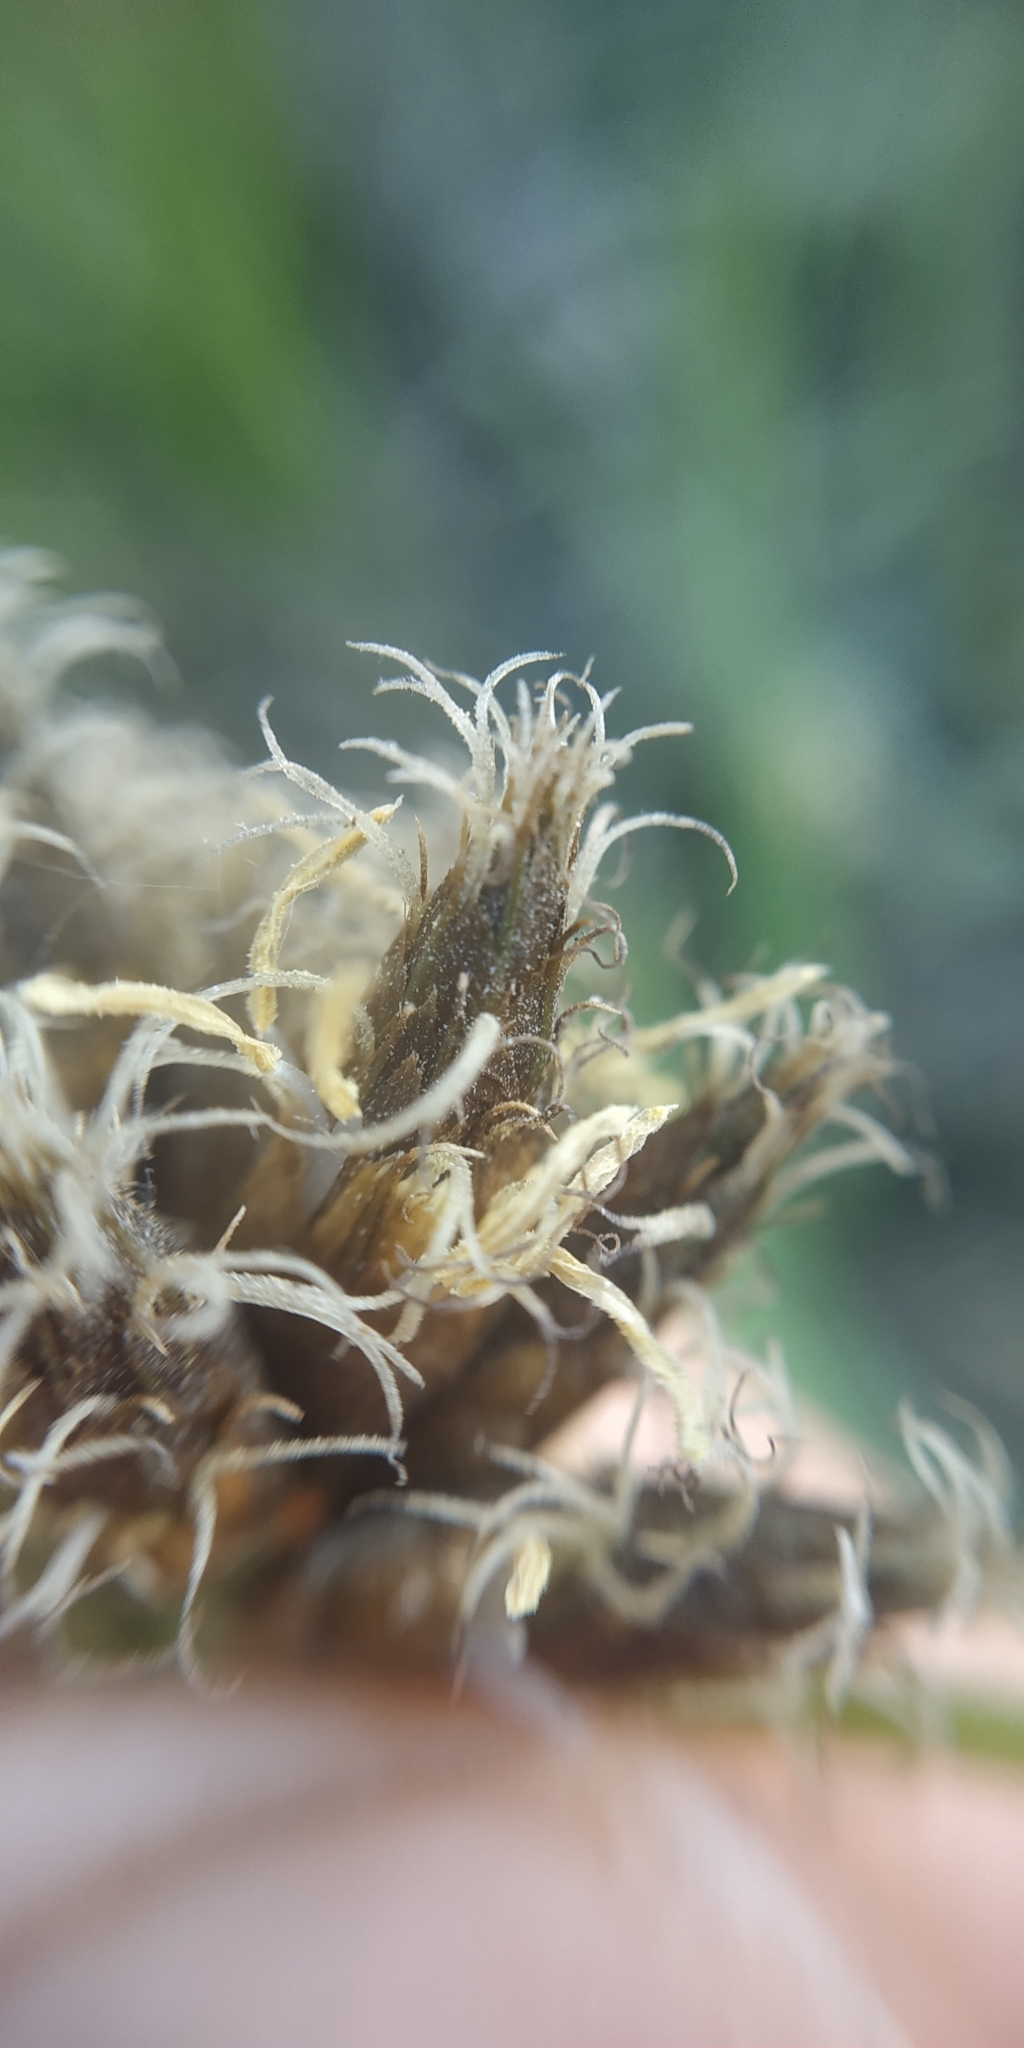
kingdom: Plantae
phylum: Tracheophyta
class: Liliopsida
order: Poales
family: Cyperaceae
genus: Bolboschoenus
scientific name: Bolboschoenus maritimus
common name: Sea club-rush
